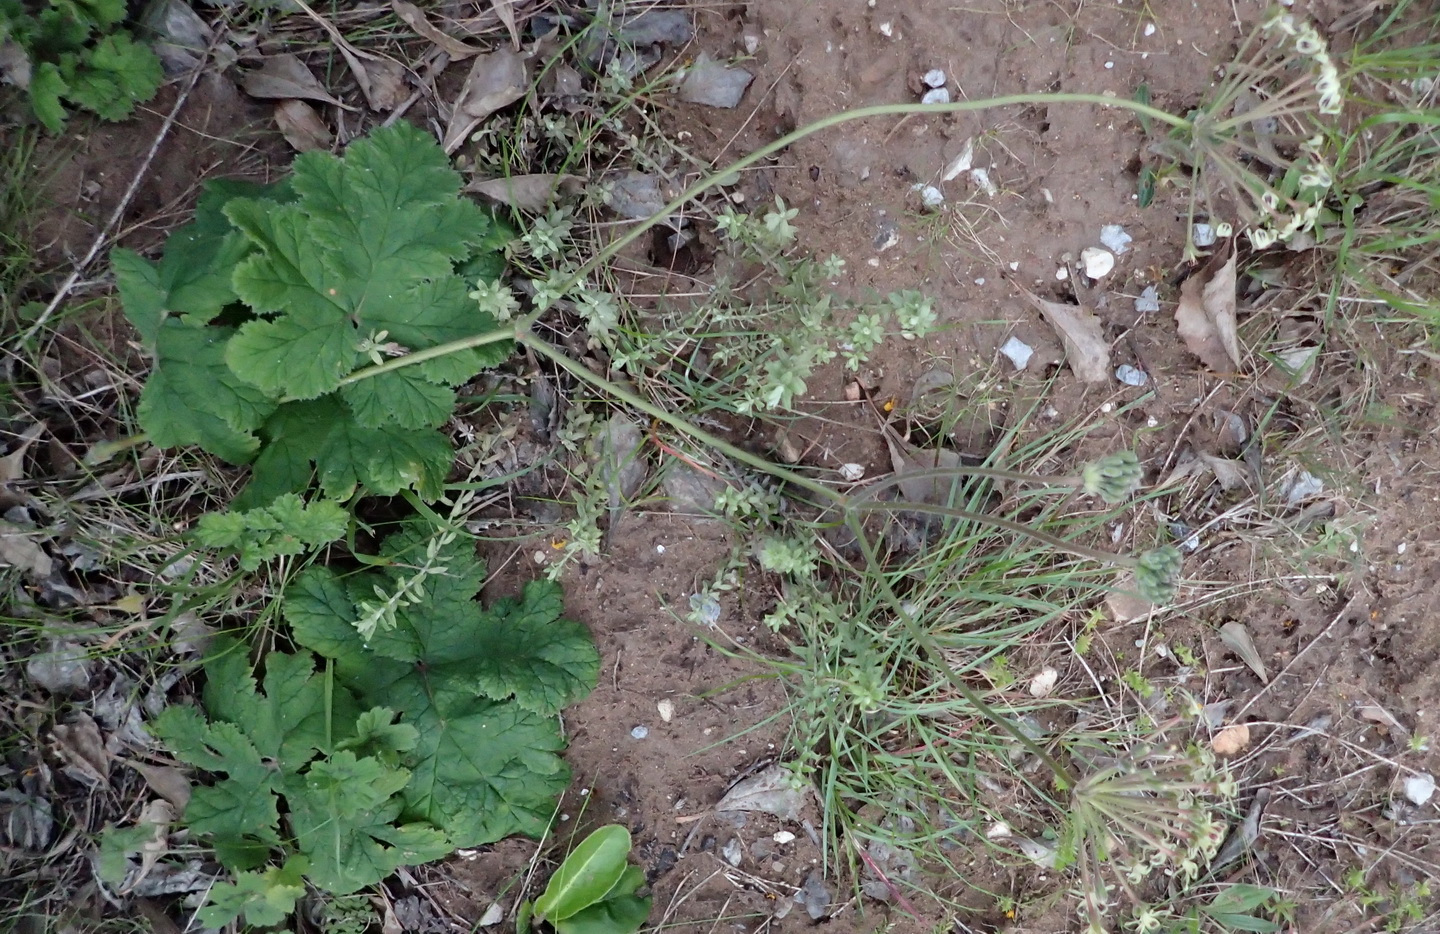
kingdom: Plantae
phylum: Tracheophyta
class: Magnoliopsida
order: Geraniales
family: Geraniaceae
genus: Pelargonium
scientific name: Pelargonium lobatum
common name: Vine-leaf pelargonium
